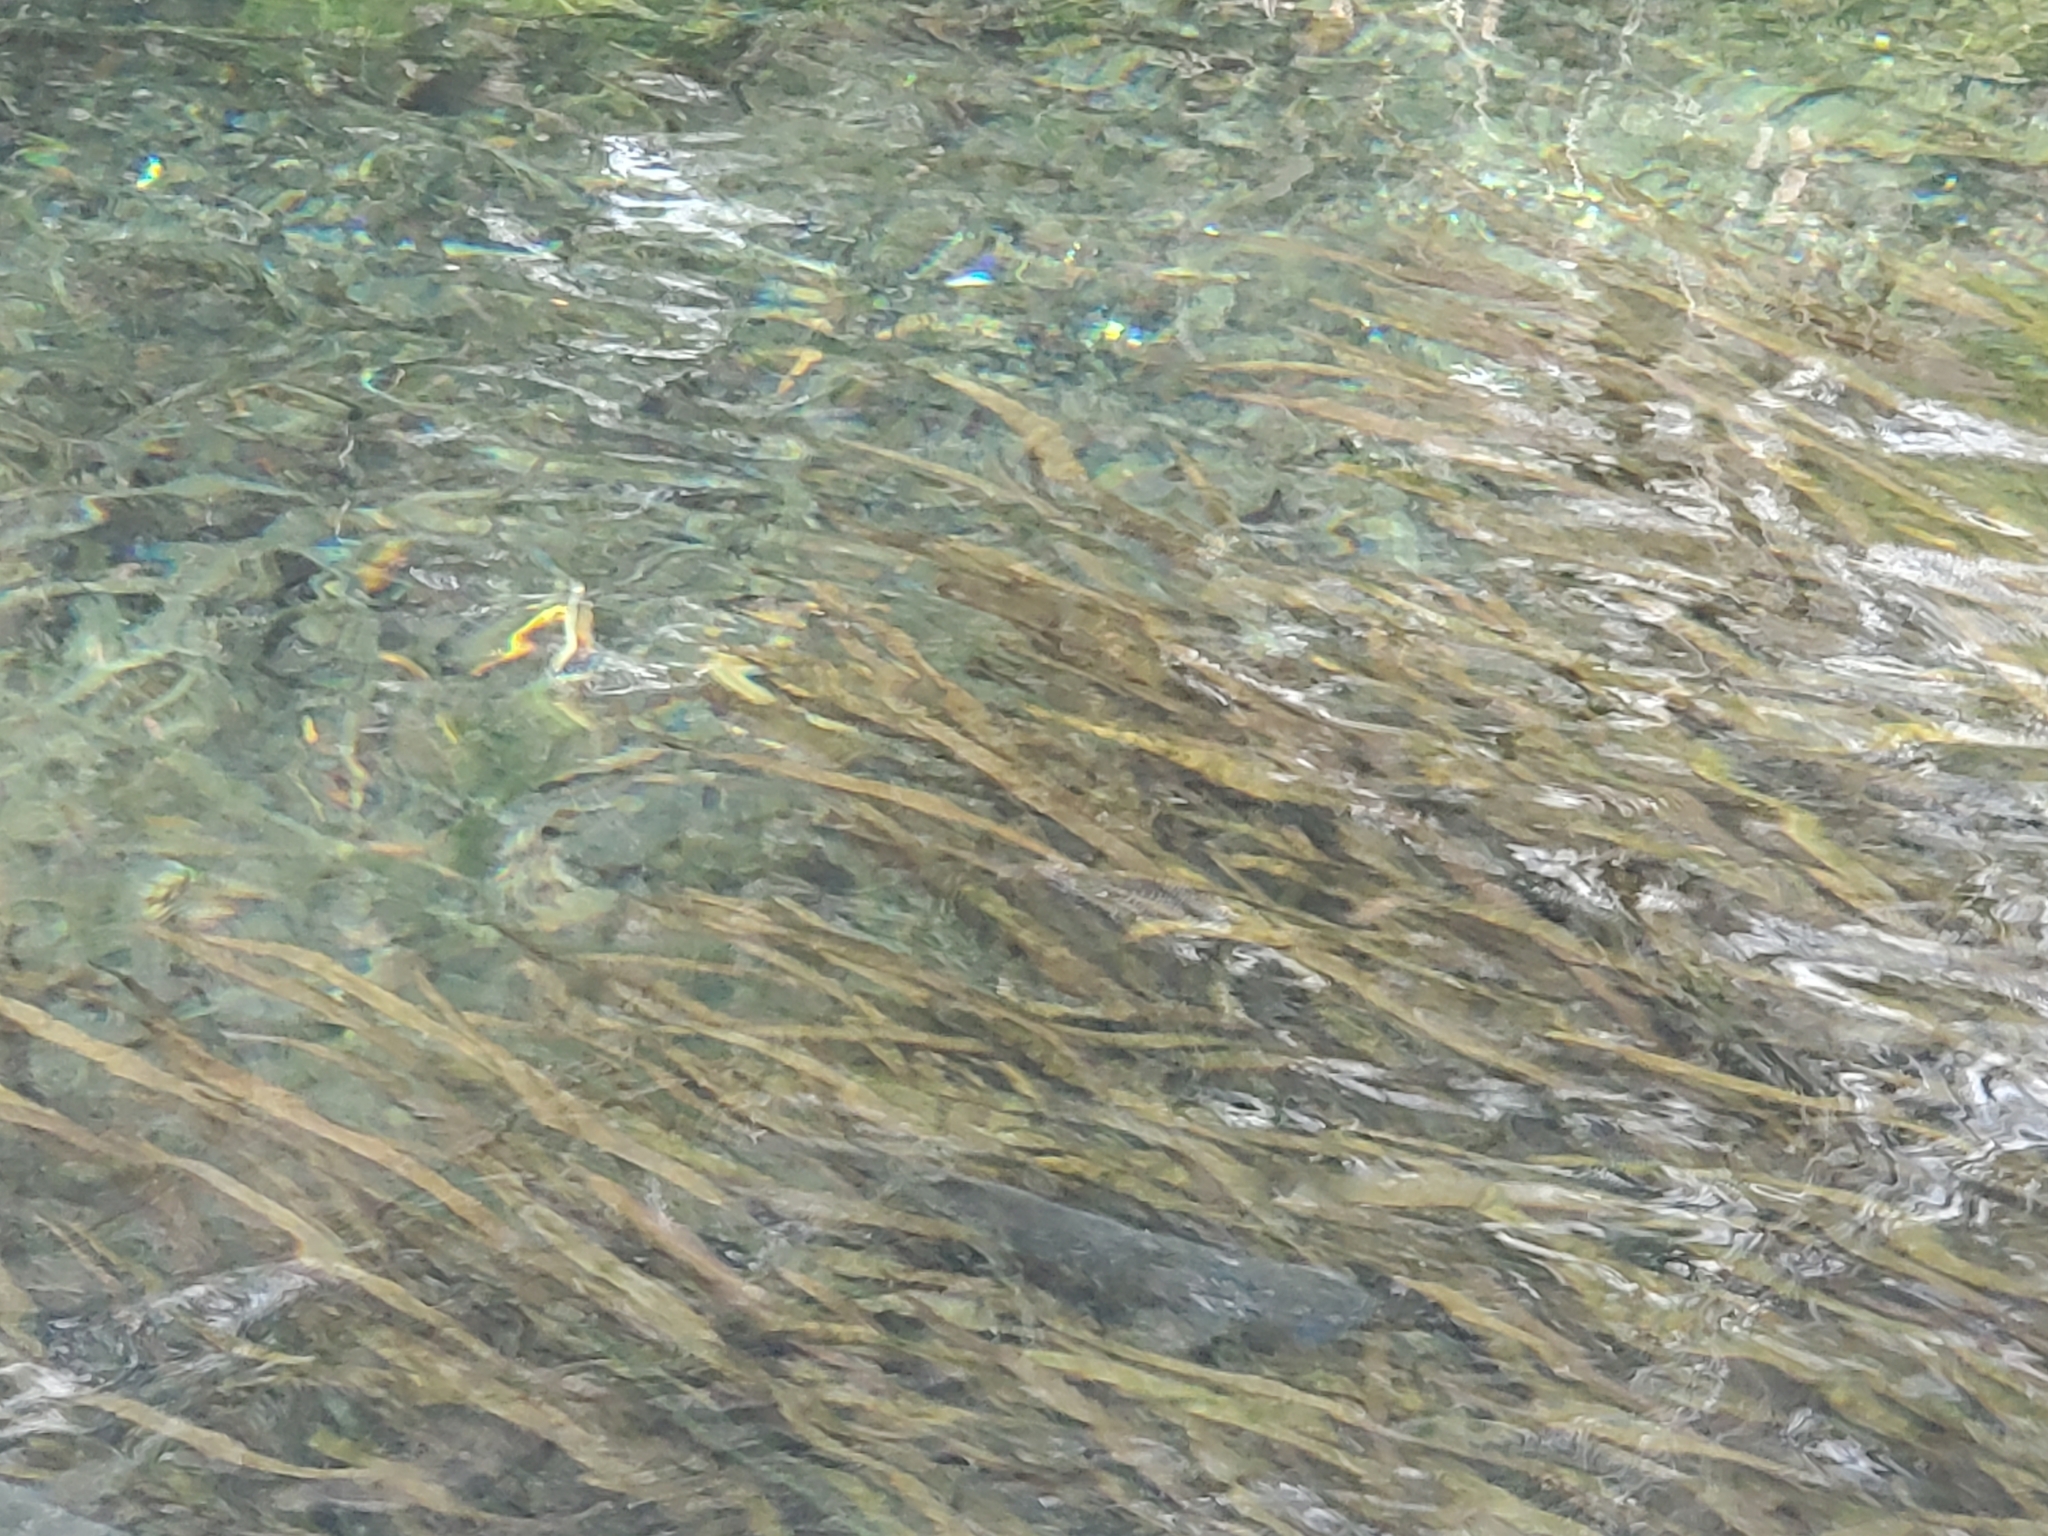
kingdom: Plantae
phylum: Tracheophyta
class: Liliopsida
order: Alismatales
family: Hydrocharitaceae
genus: Vallisneria
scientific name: Vallisneria americana
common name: American eelgrass
